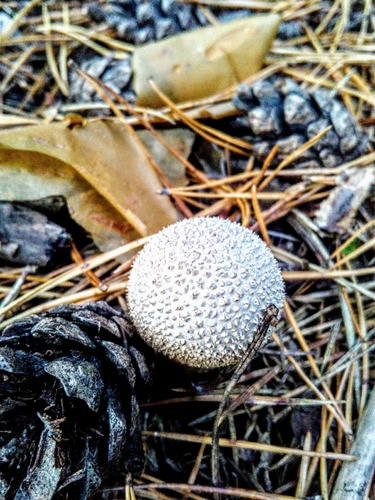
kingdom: Fungi
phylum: Basidiomycota
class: Agaricomycetes
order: Agaricales
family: Lycoperdaceae
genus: Lycoperdon
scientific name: Lycoperdon perlatum
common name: Common puffball
